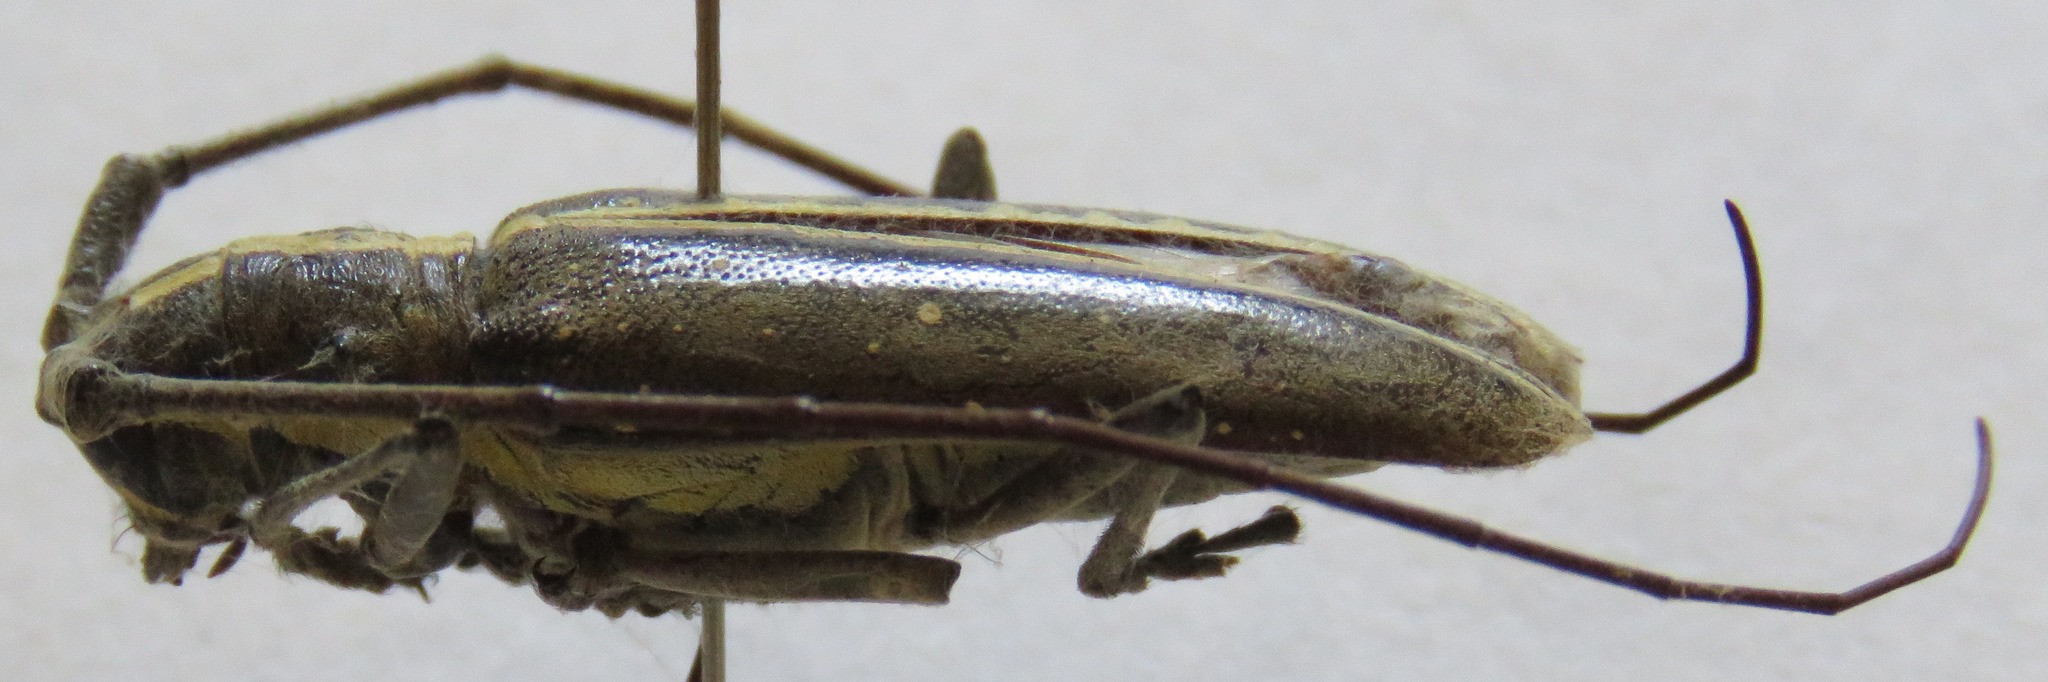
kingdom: Animalia
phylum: Arthropoda
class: Insecta
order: Coleoptera
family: Cerambycidae
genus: Taeniotes
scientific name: Taeniotes scalatus
